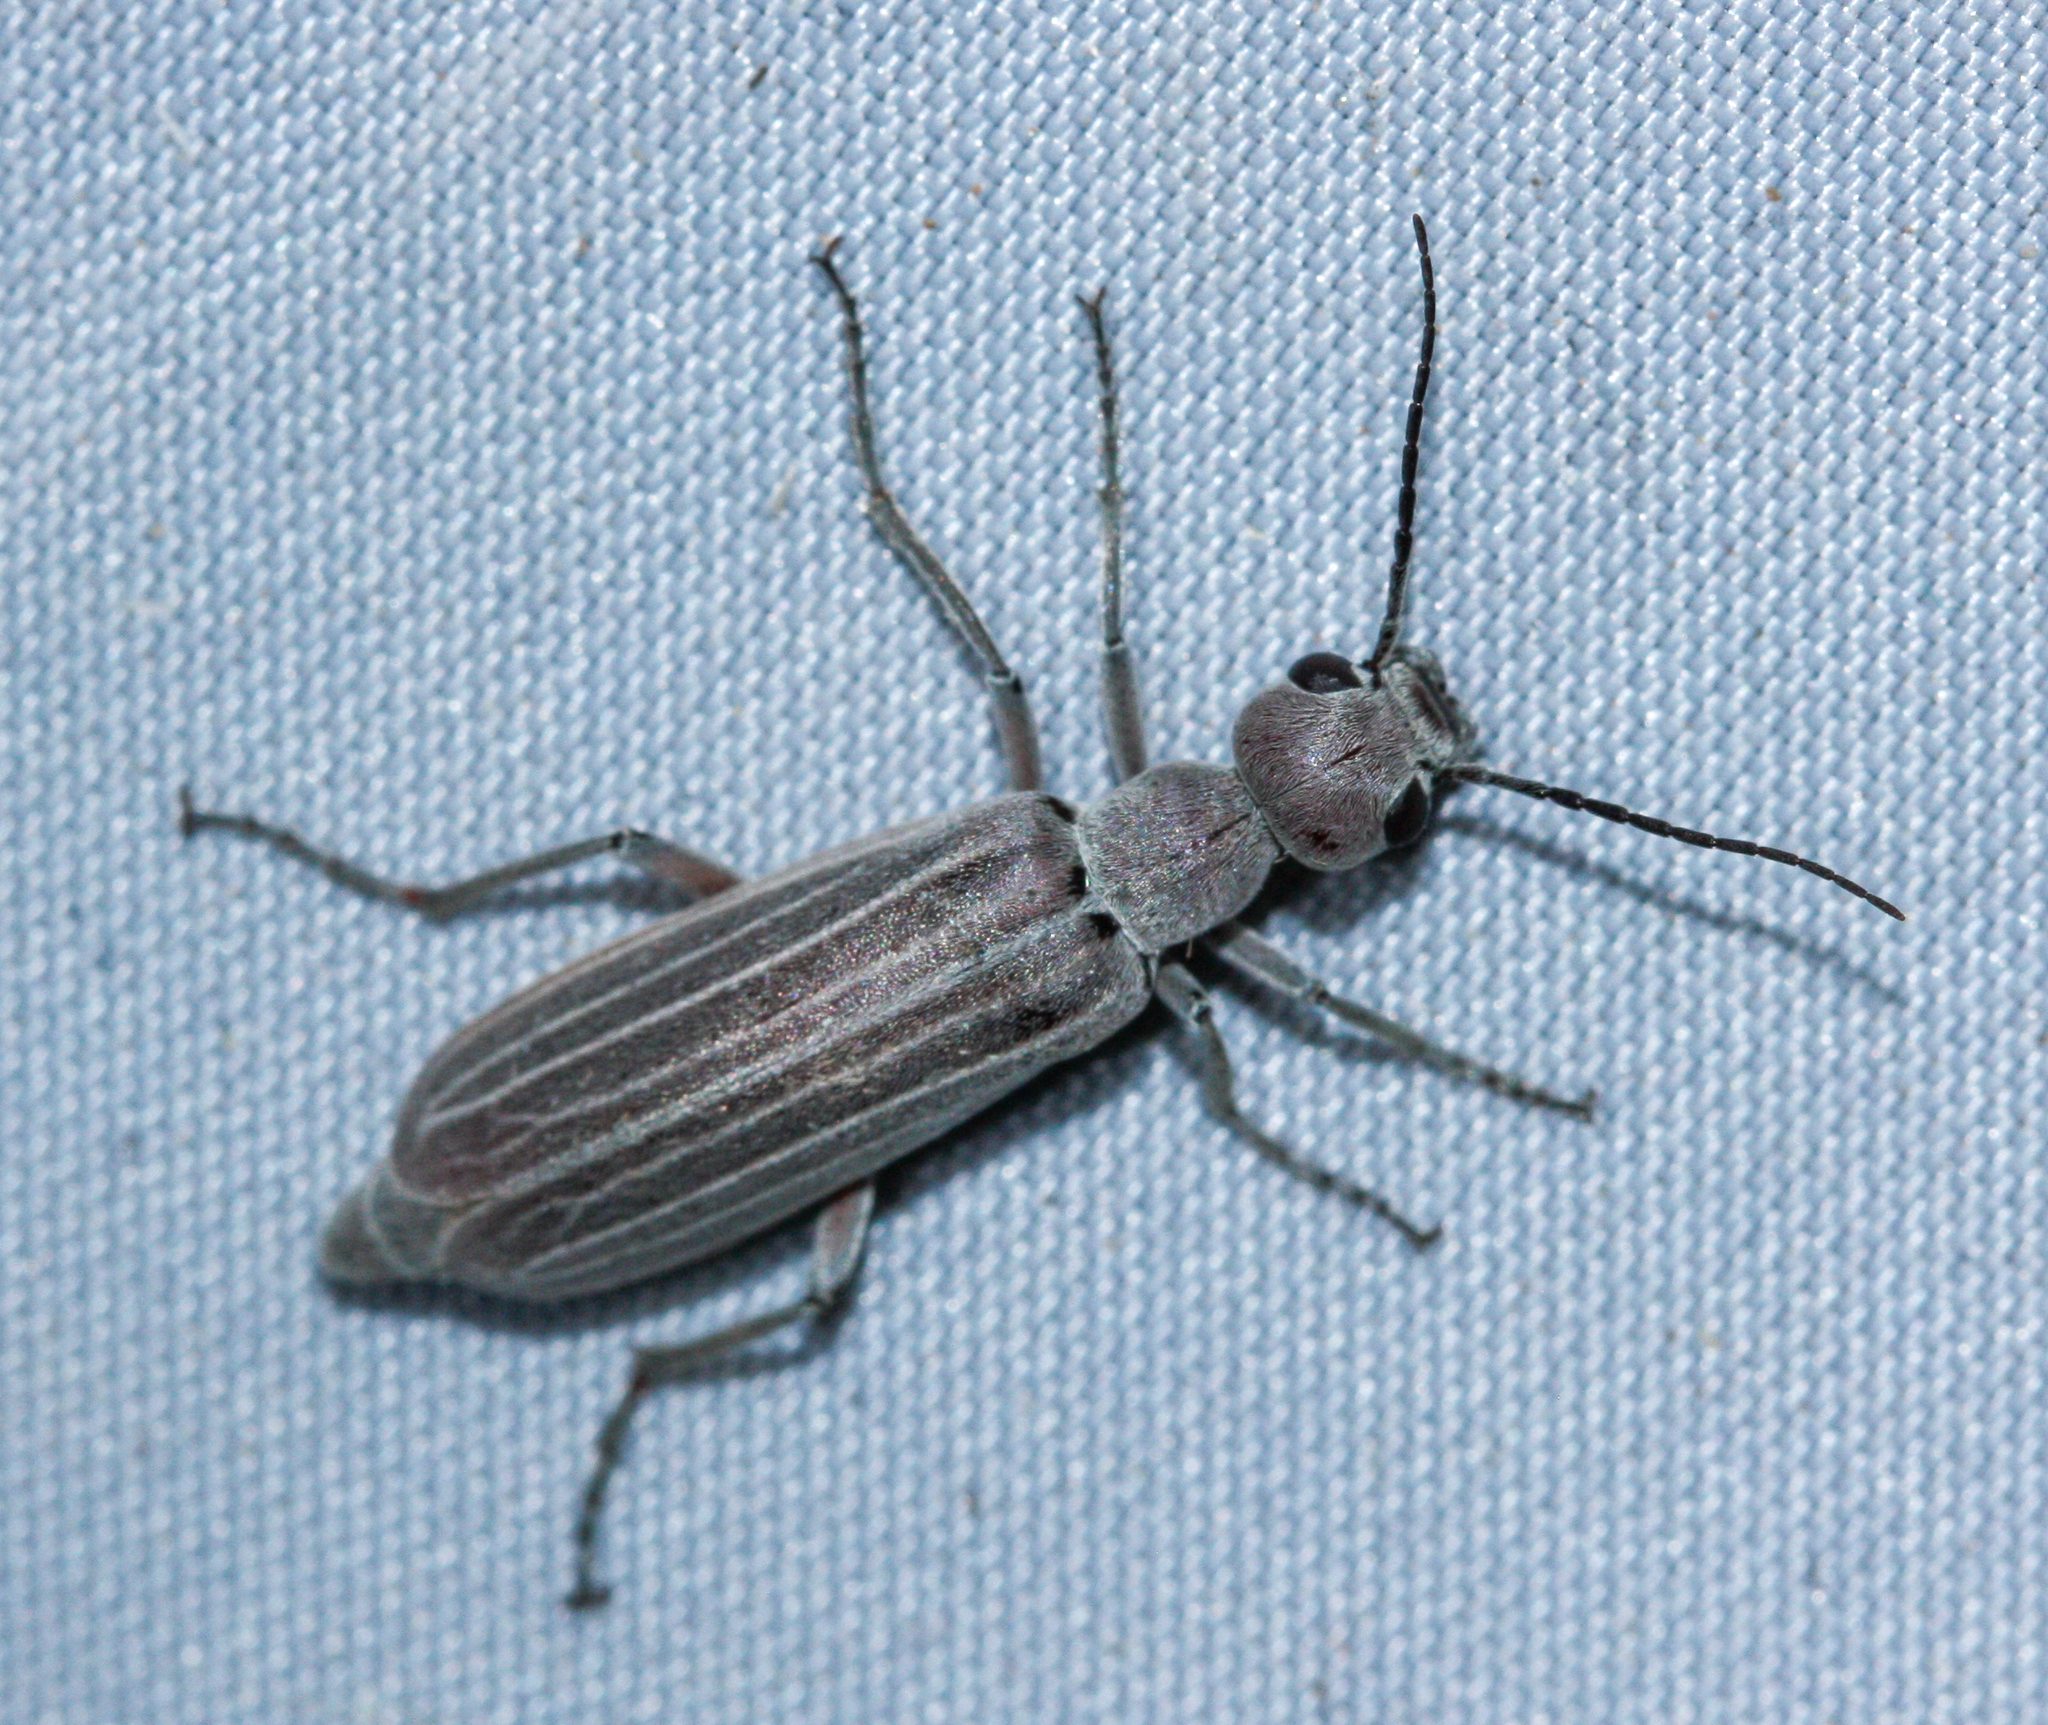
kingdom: Animalia
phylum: Arthropoda
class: Insecta
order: Coleoptera
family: Meloidae
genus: Epicauta
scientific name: Epicauta tenuilineata
